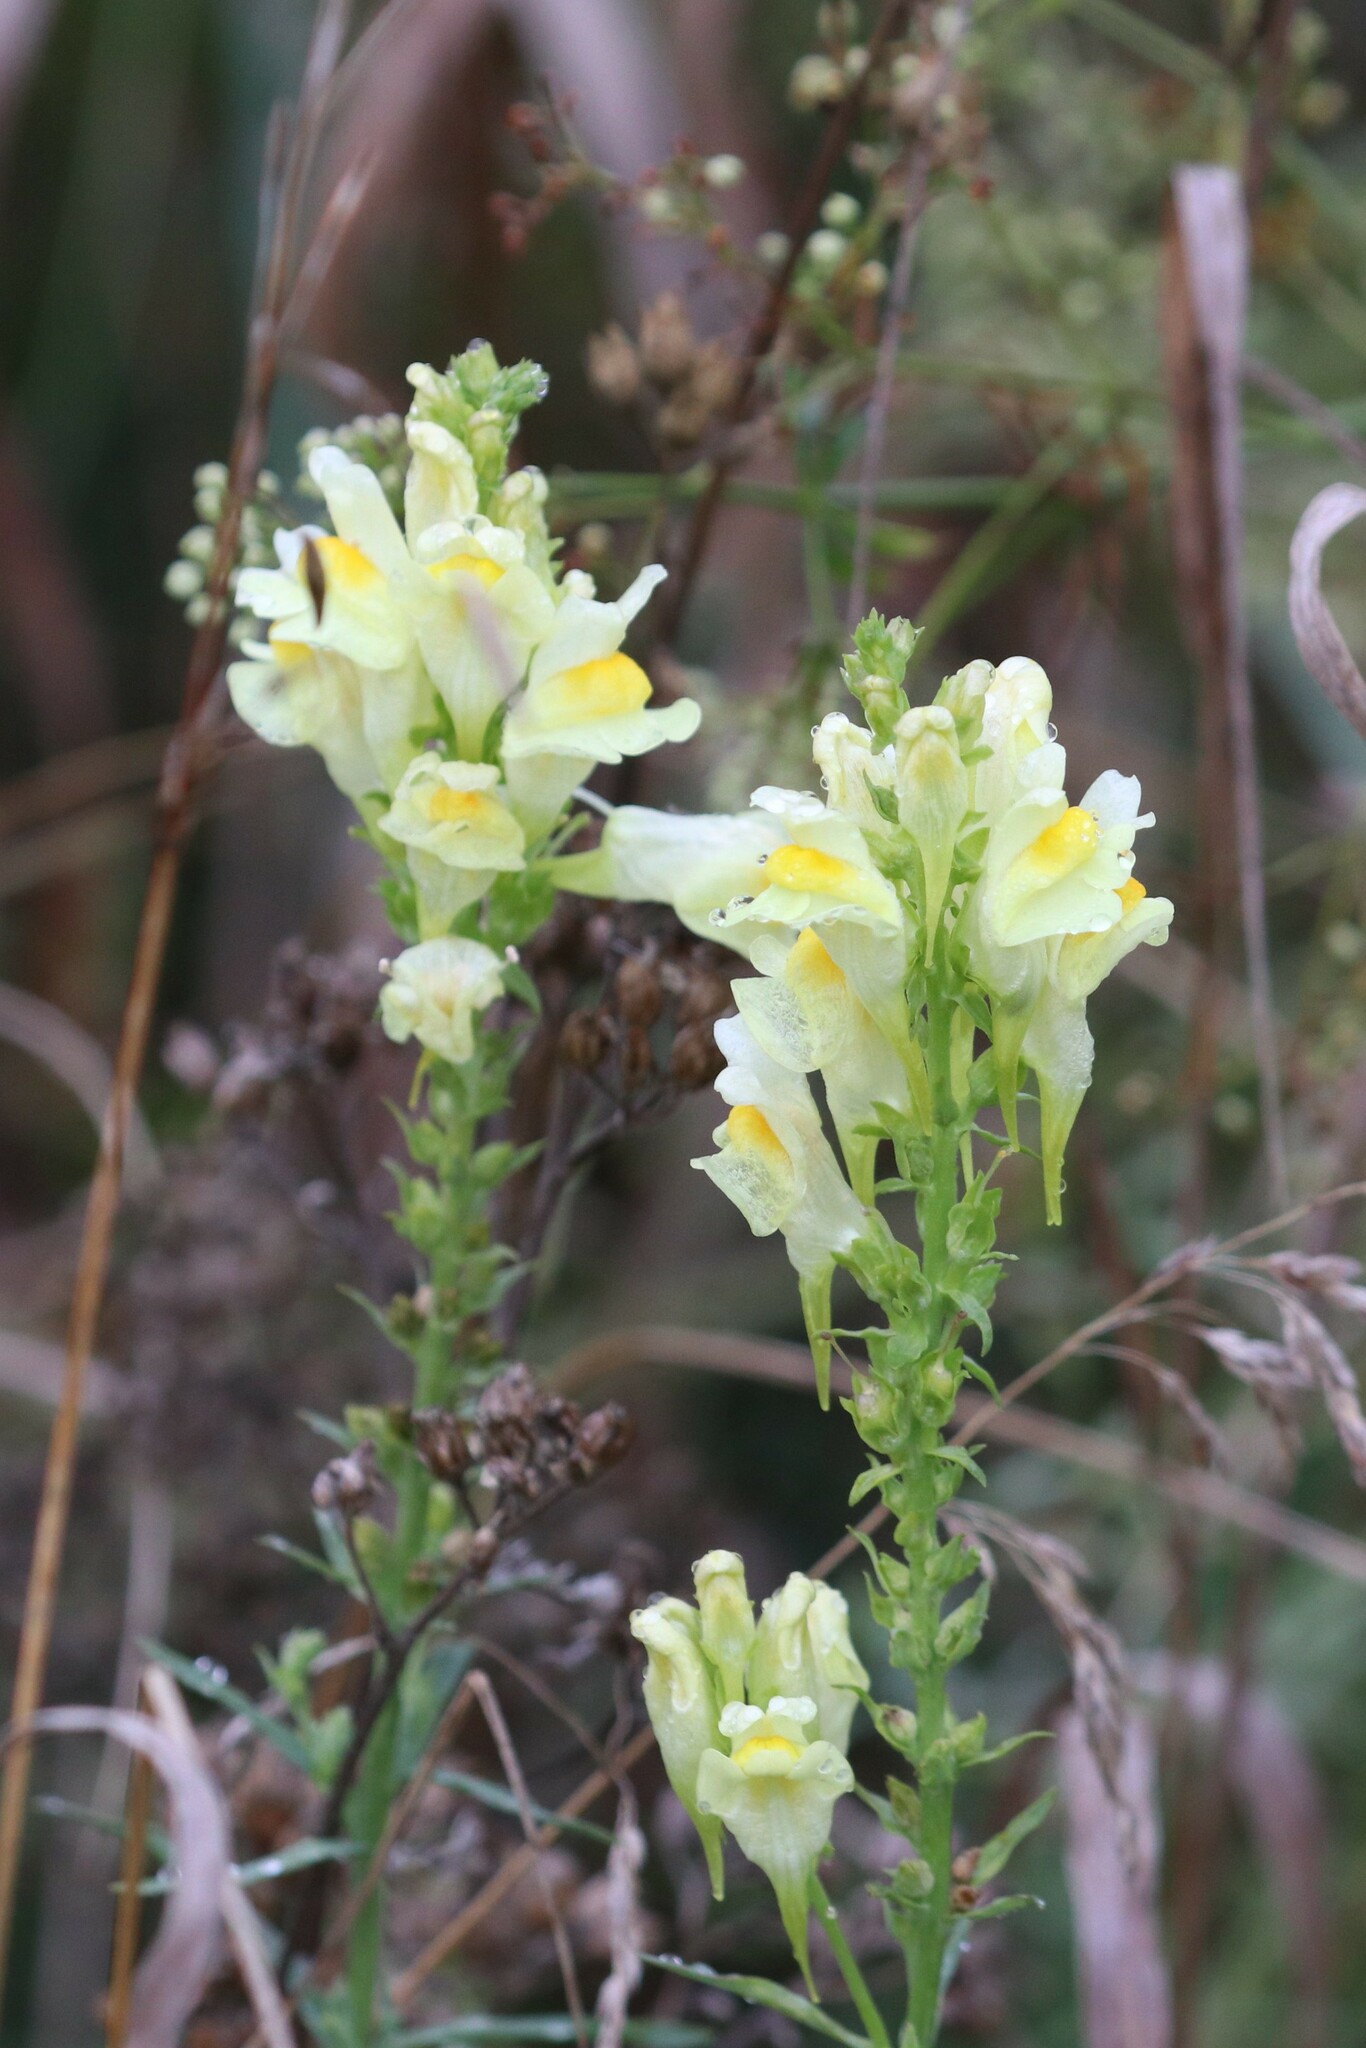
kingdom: Plantae
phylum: Tracheophyta
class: Magnoliopsida
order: Lamiales
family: Plantaginaceae
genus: Linaria
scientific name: Linaria vulgaris
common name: Butter and eggs
